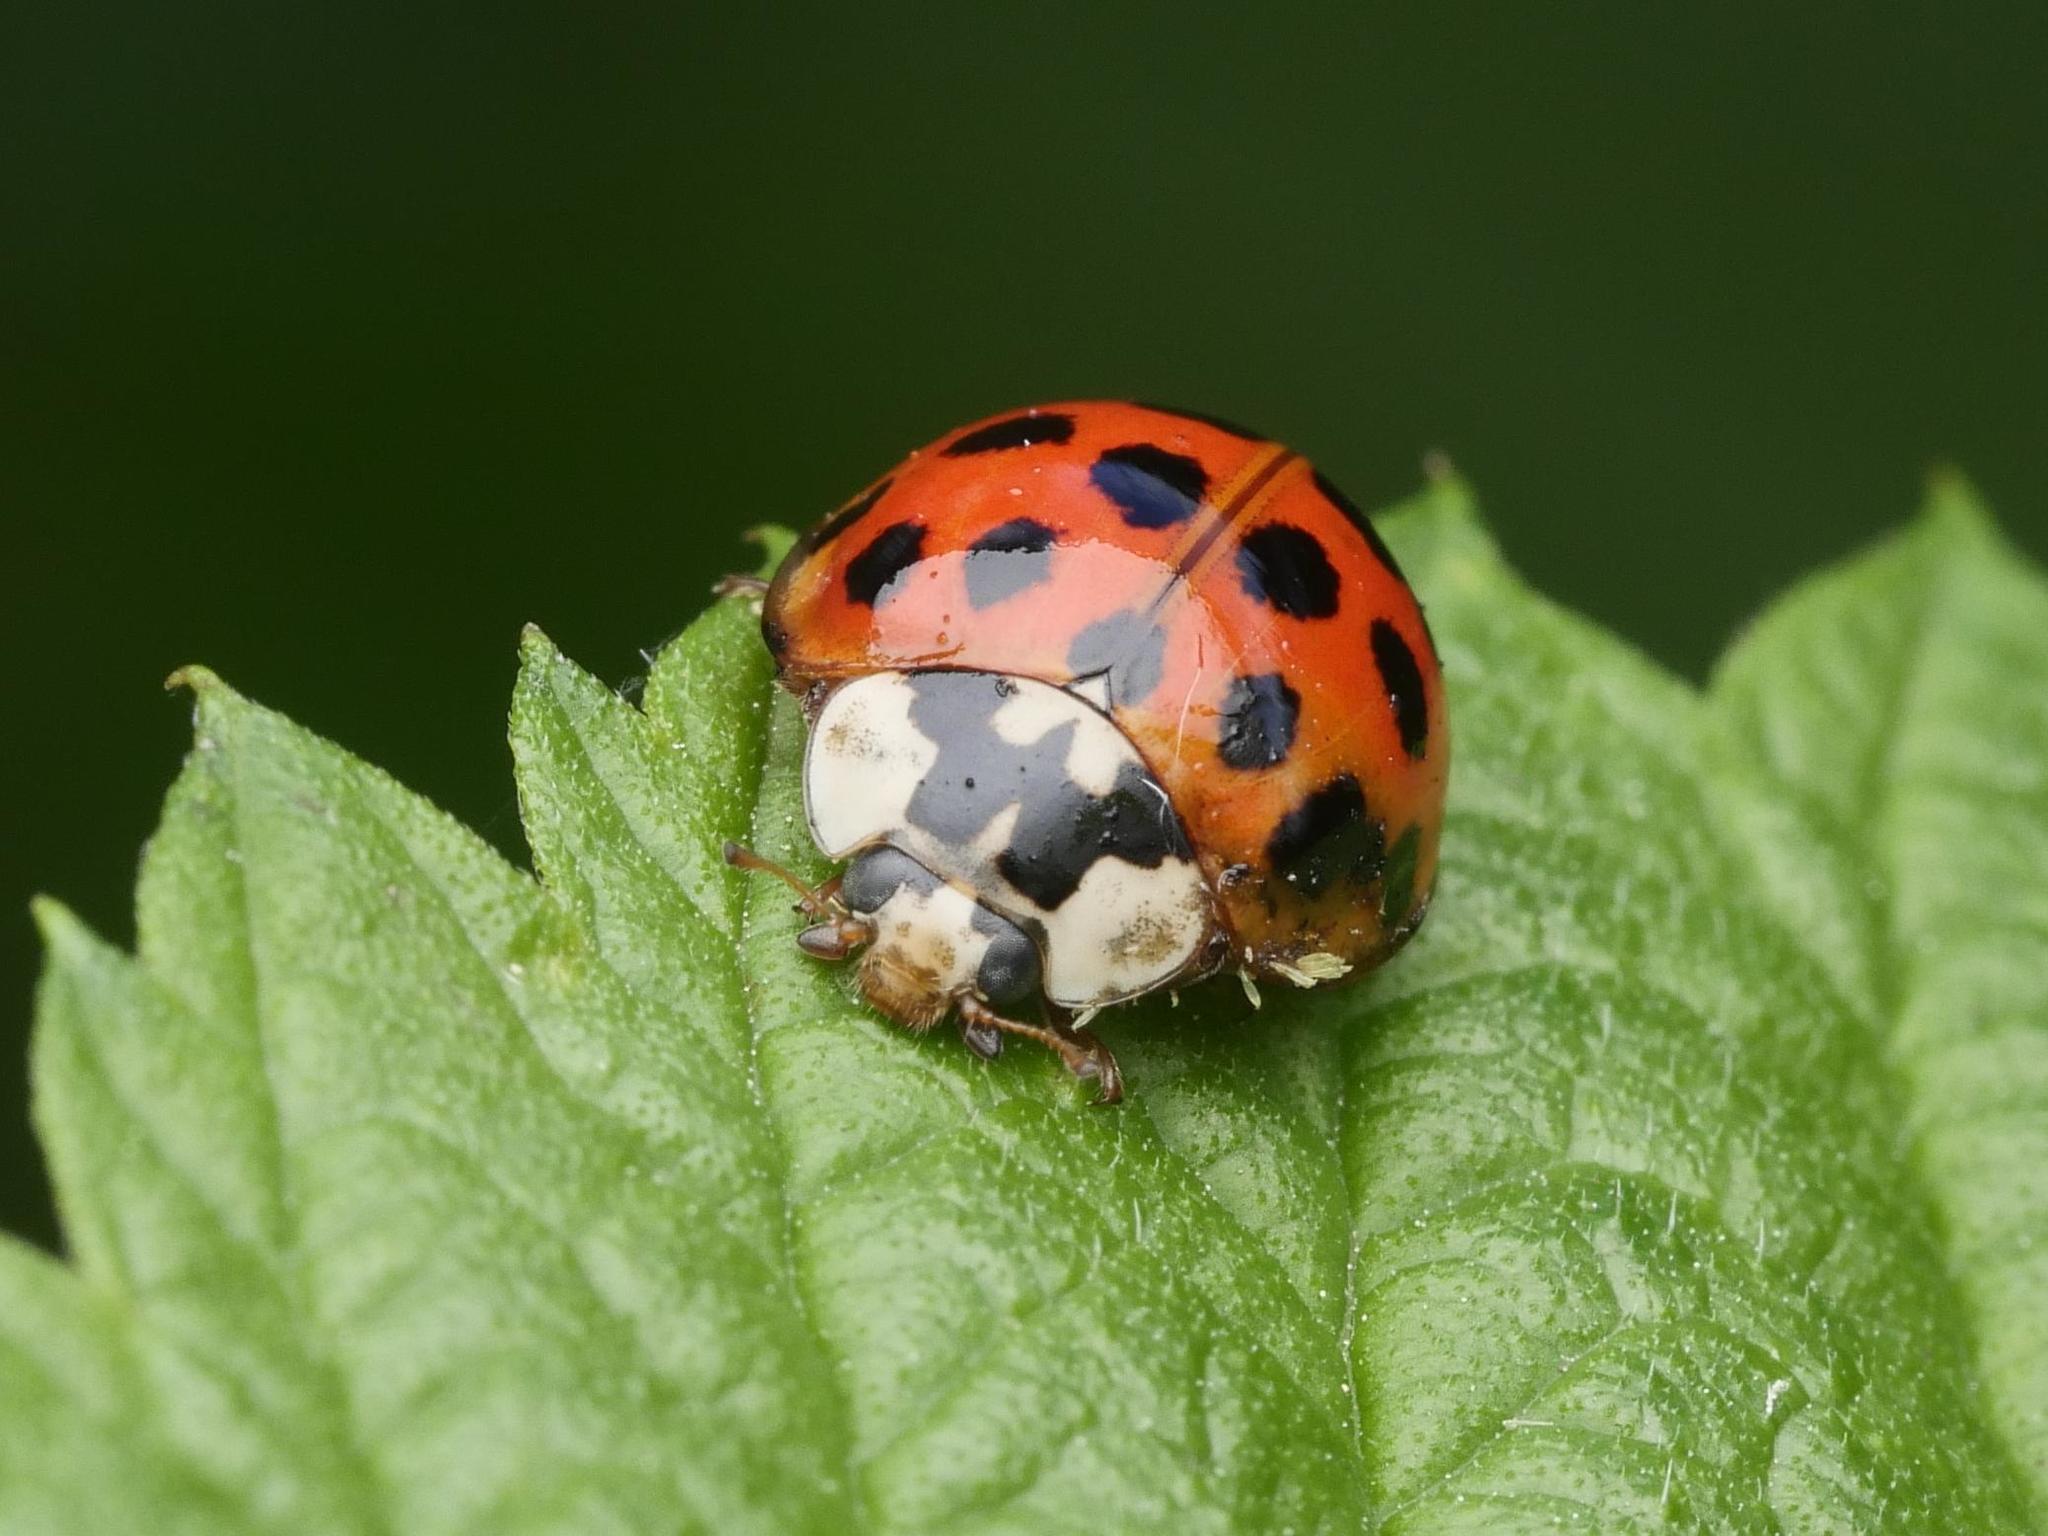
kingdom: Fungi
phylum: Ascomycota
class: Laboulbeniomycetes
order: Laboulbeniales
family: Laboulbeniaceae
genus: Hesperomyces
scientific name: Hesperomyces harmoniae
